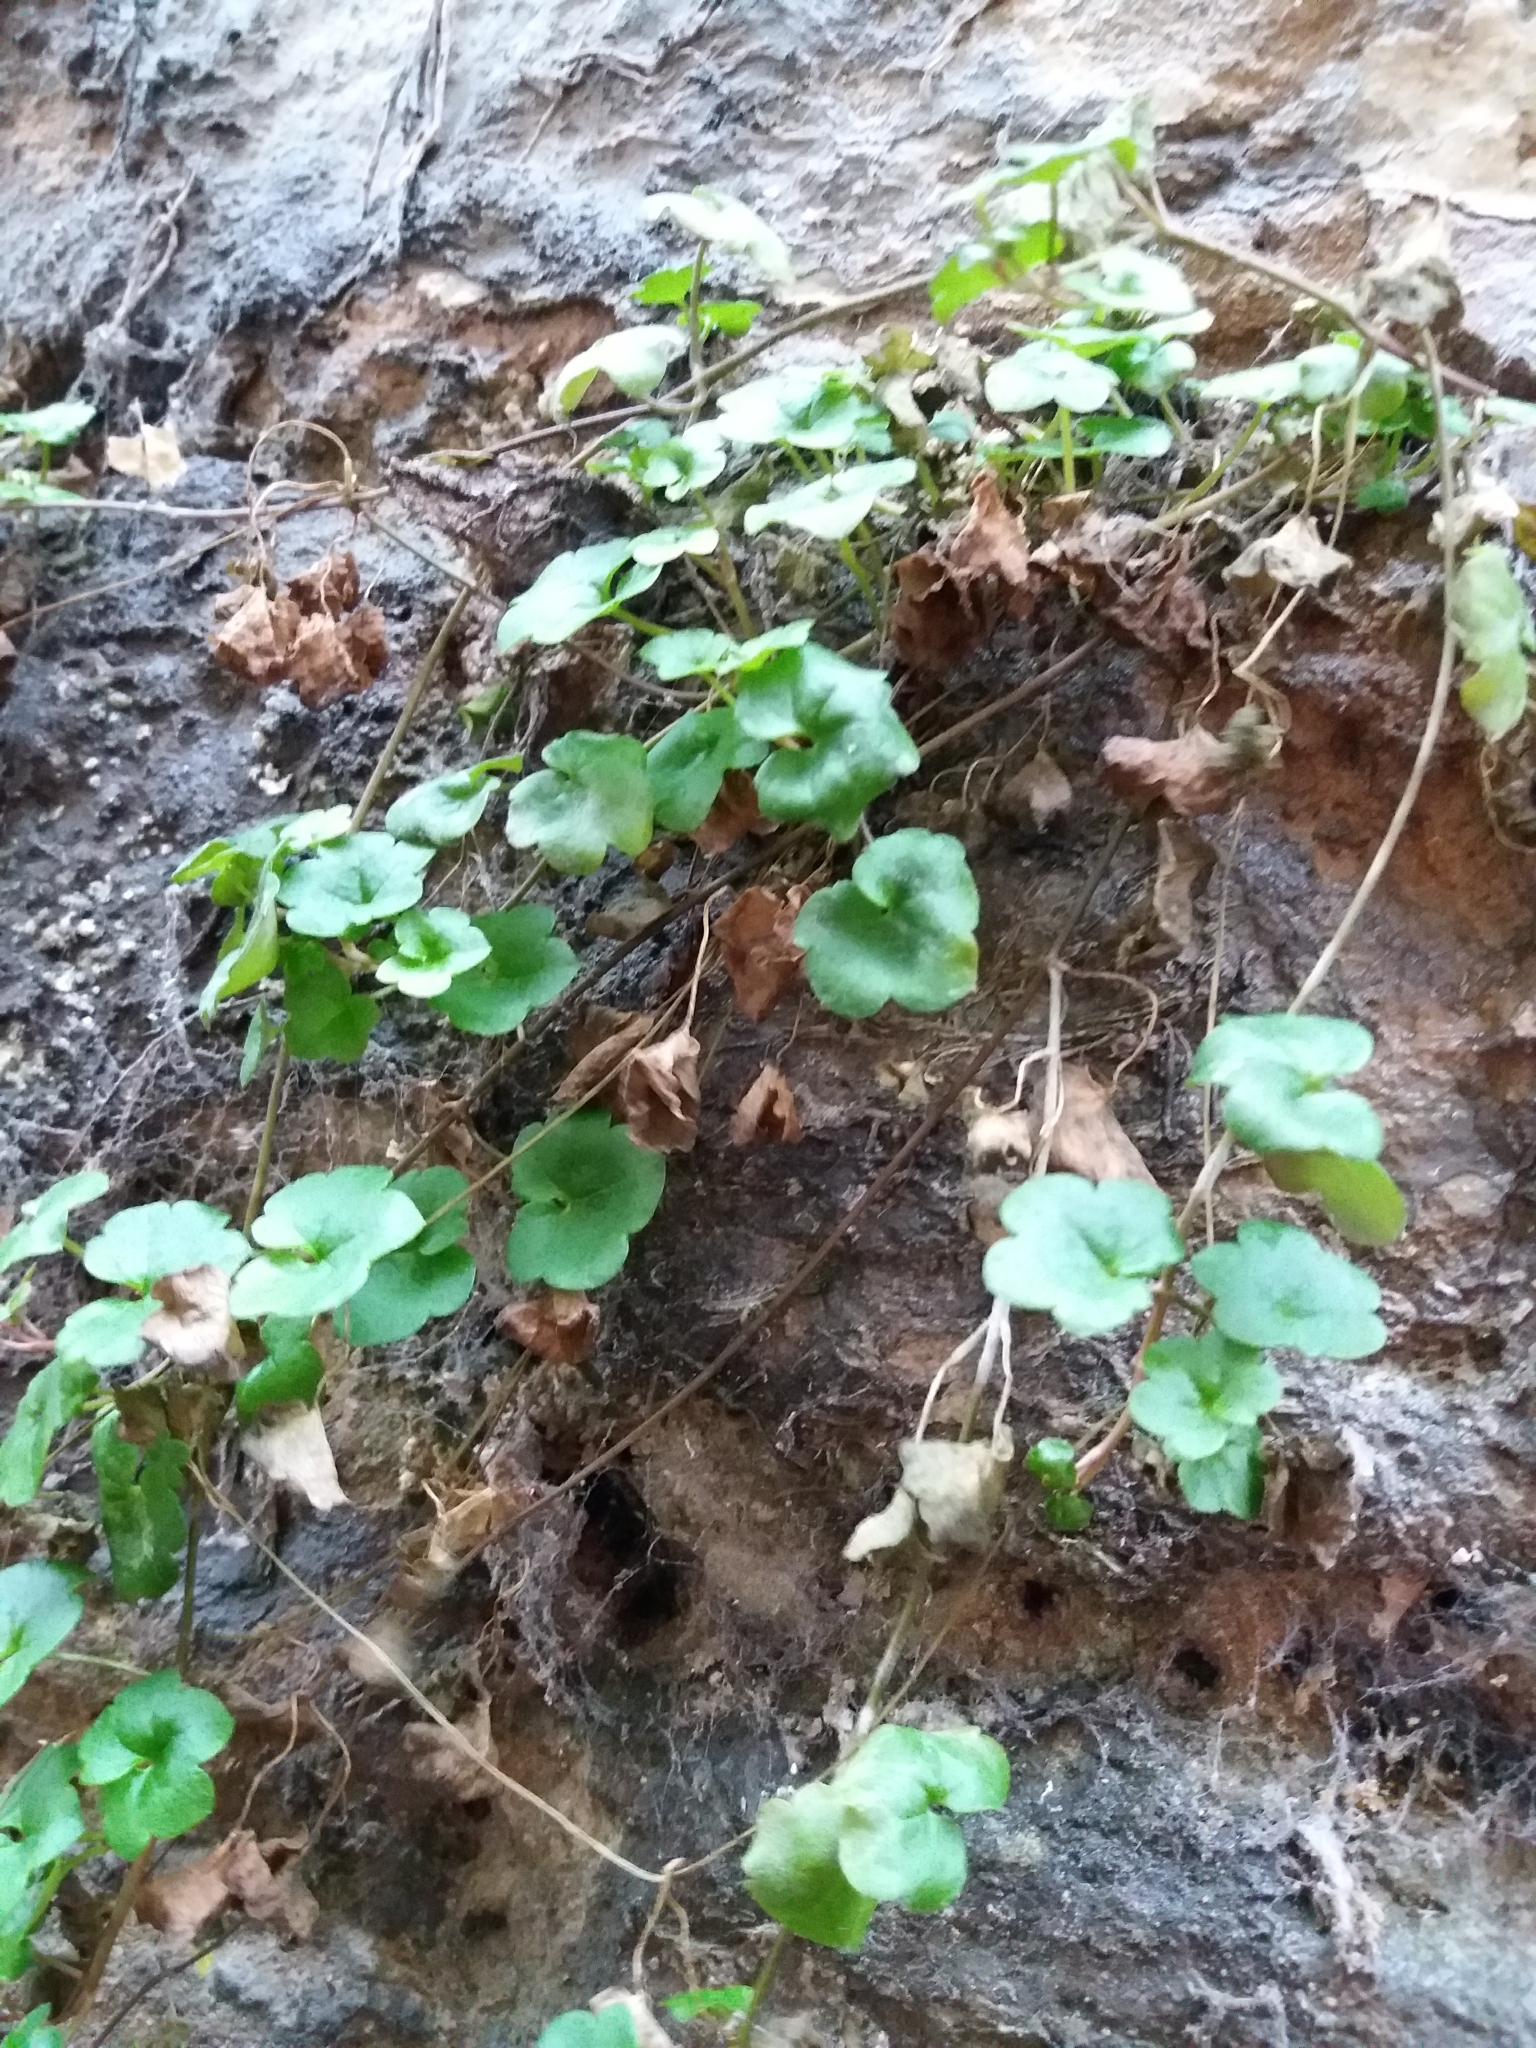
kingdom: Plantae
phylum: Tracheophyta
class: Magnoliopsida
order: Lamiales
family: Plantaginaceae
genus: Cymbalaria
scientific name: Cymbalaria muralis
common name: Ivy-leaved toadflax
